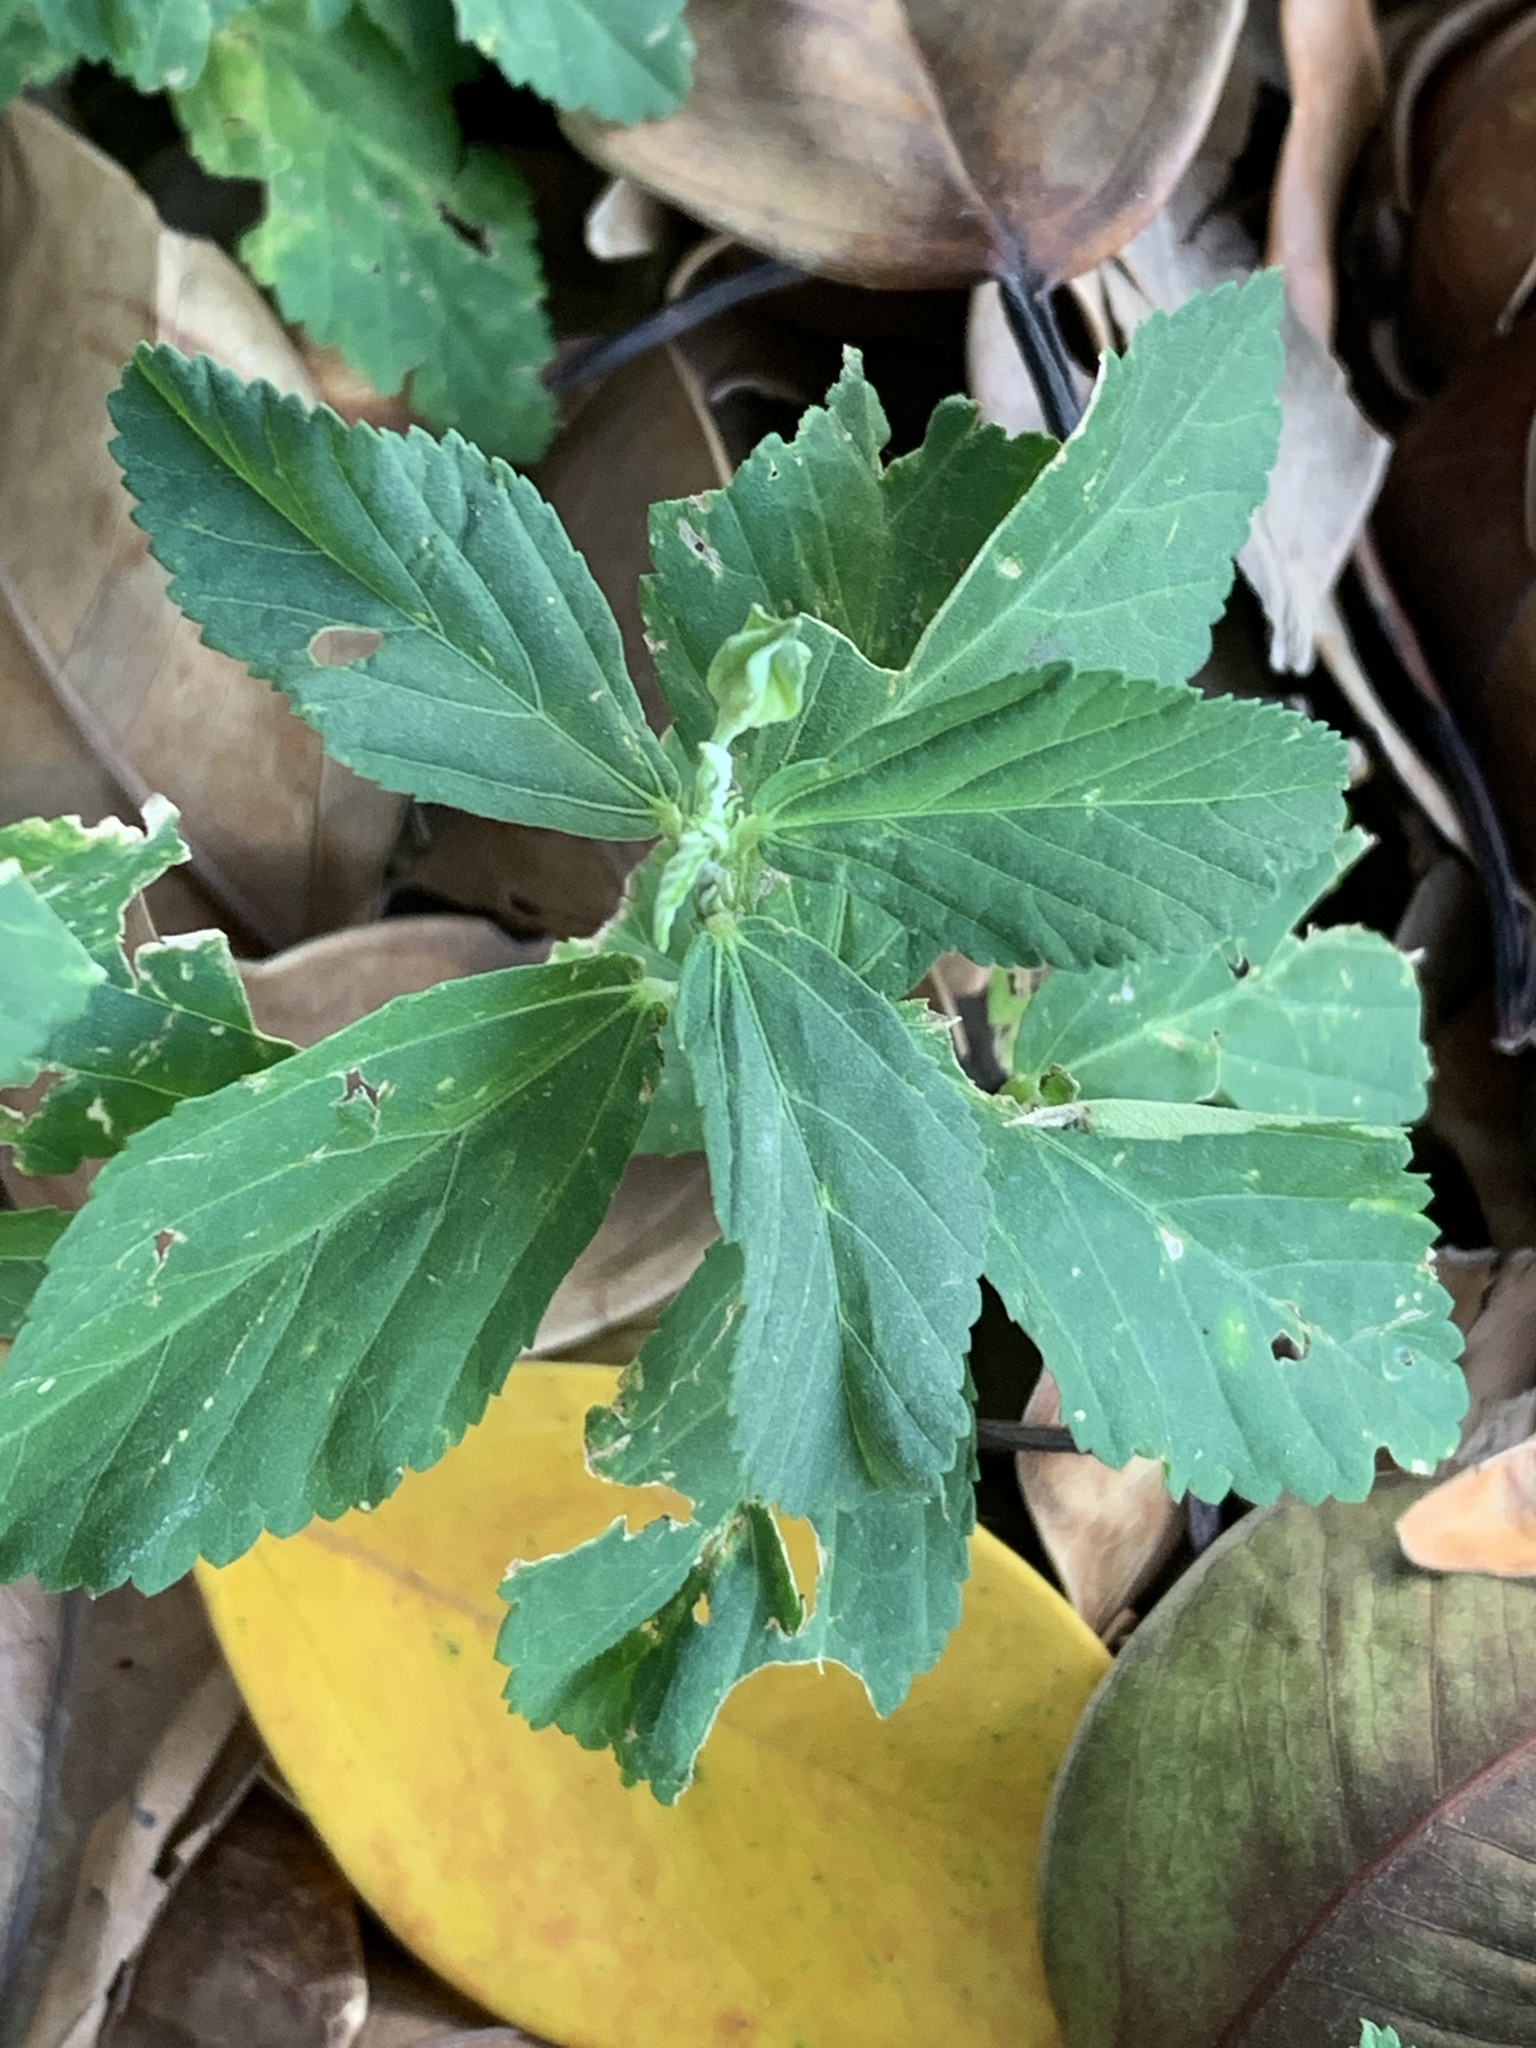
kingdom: Plantae
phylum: Tracheophyta
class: Magnoliopsida
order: Malvales
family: Malvaceae
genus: Sida
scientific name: Sida rhombifolia
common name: Queensland-hemp
